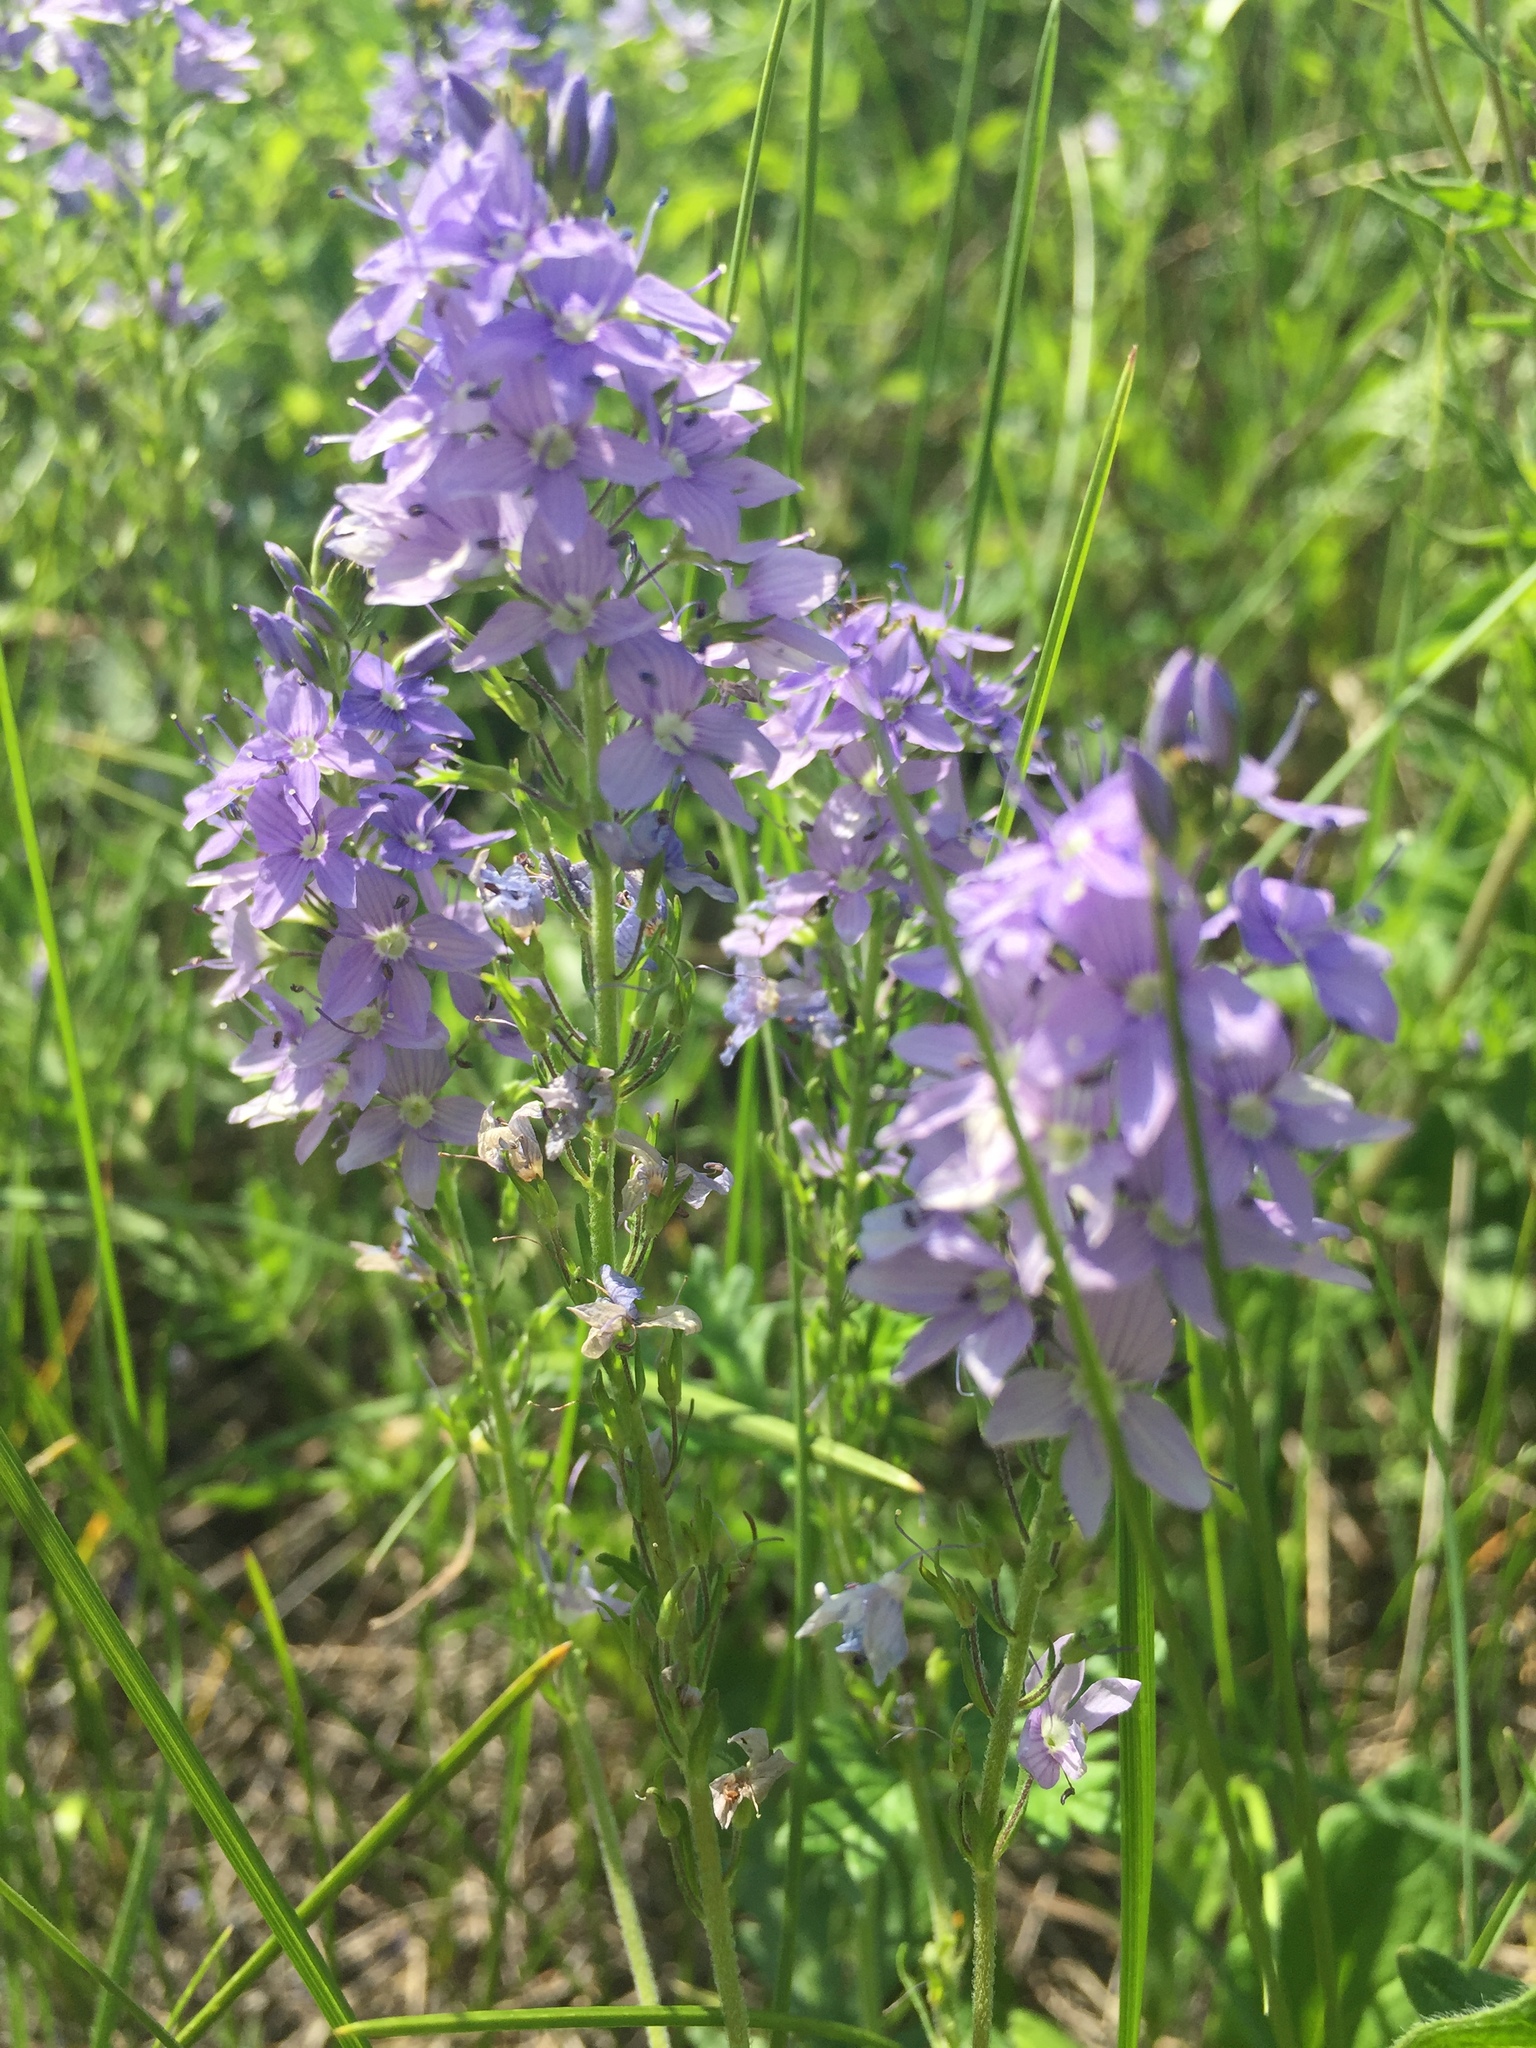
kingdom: Plantae
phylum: Tracheophyta
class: Magnoliopsida
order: Lamiales
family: Plantaginaceae
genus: Veronica
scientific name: Veronica austriaca
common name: Large speedwell
